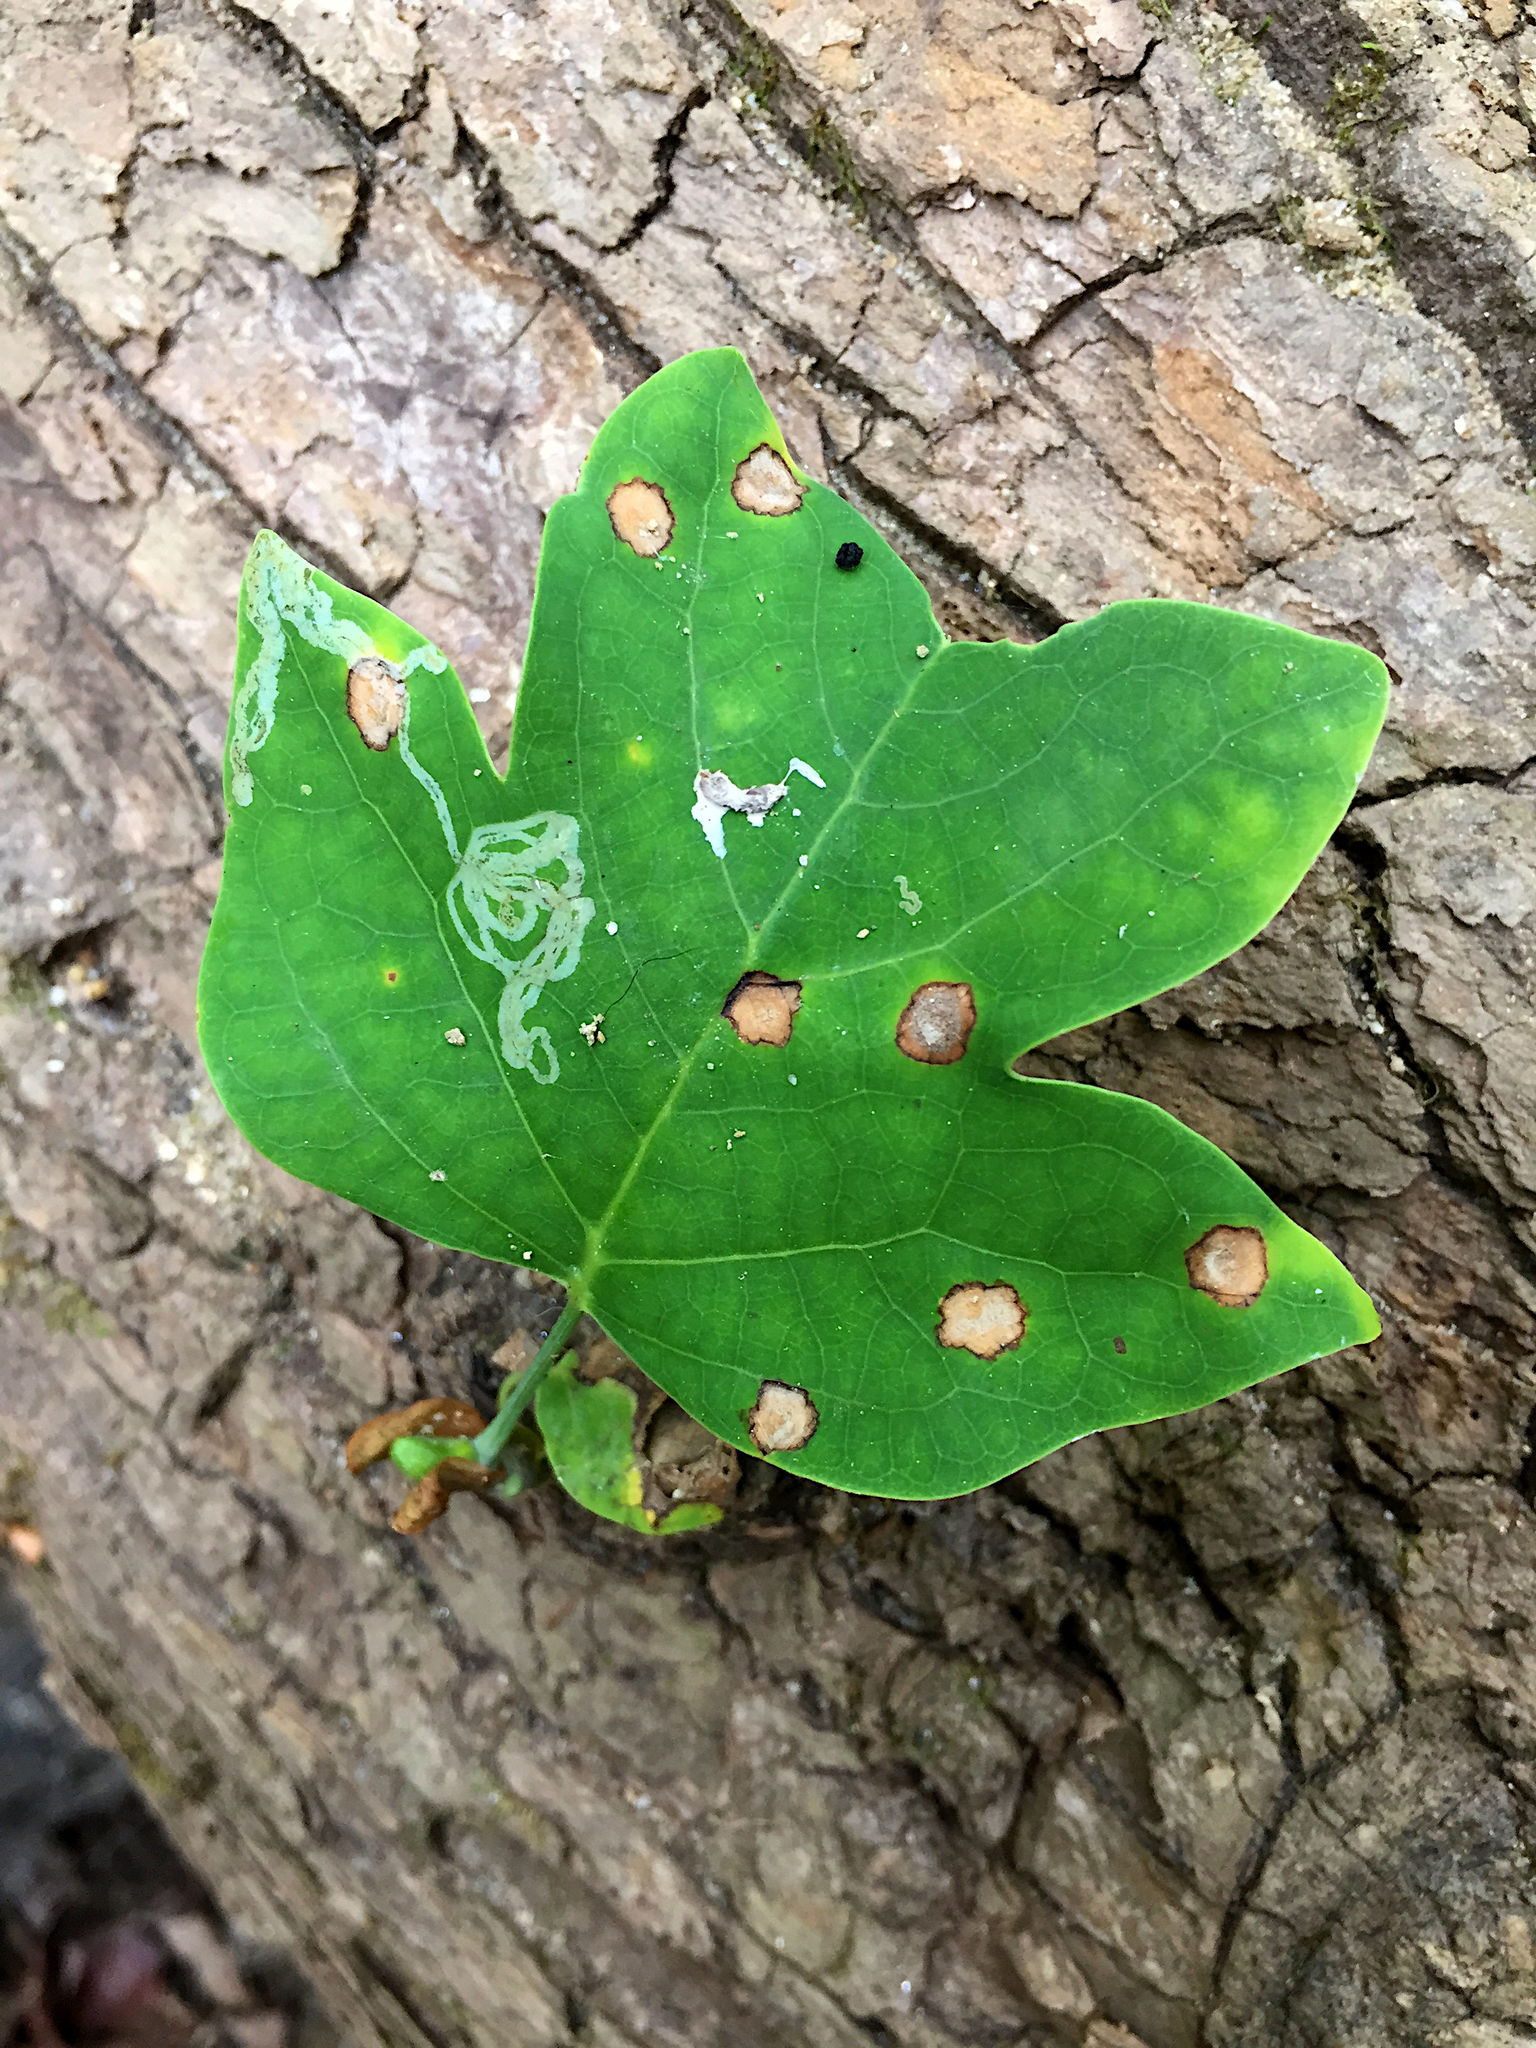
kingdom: Plantae
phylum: Tracheophyta
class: Magnoliopsida
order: Magnoliales
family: Magnoliaceae
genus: Liriodendron
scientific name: Liriodendron tulipifera
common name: Tulip tree
